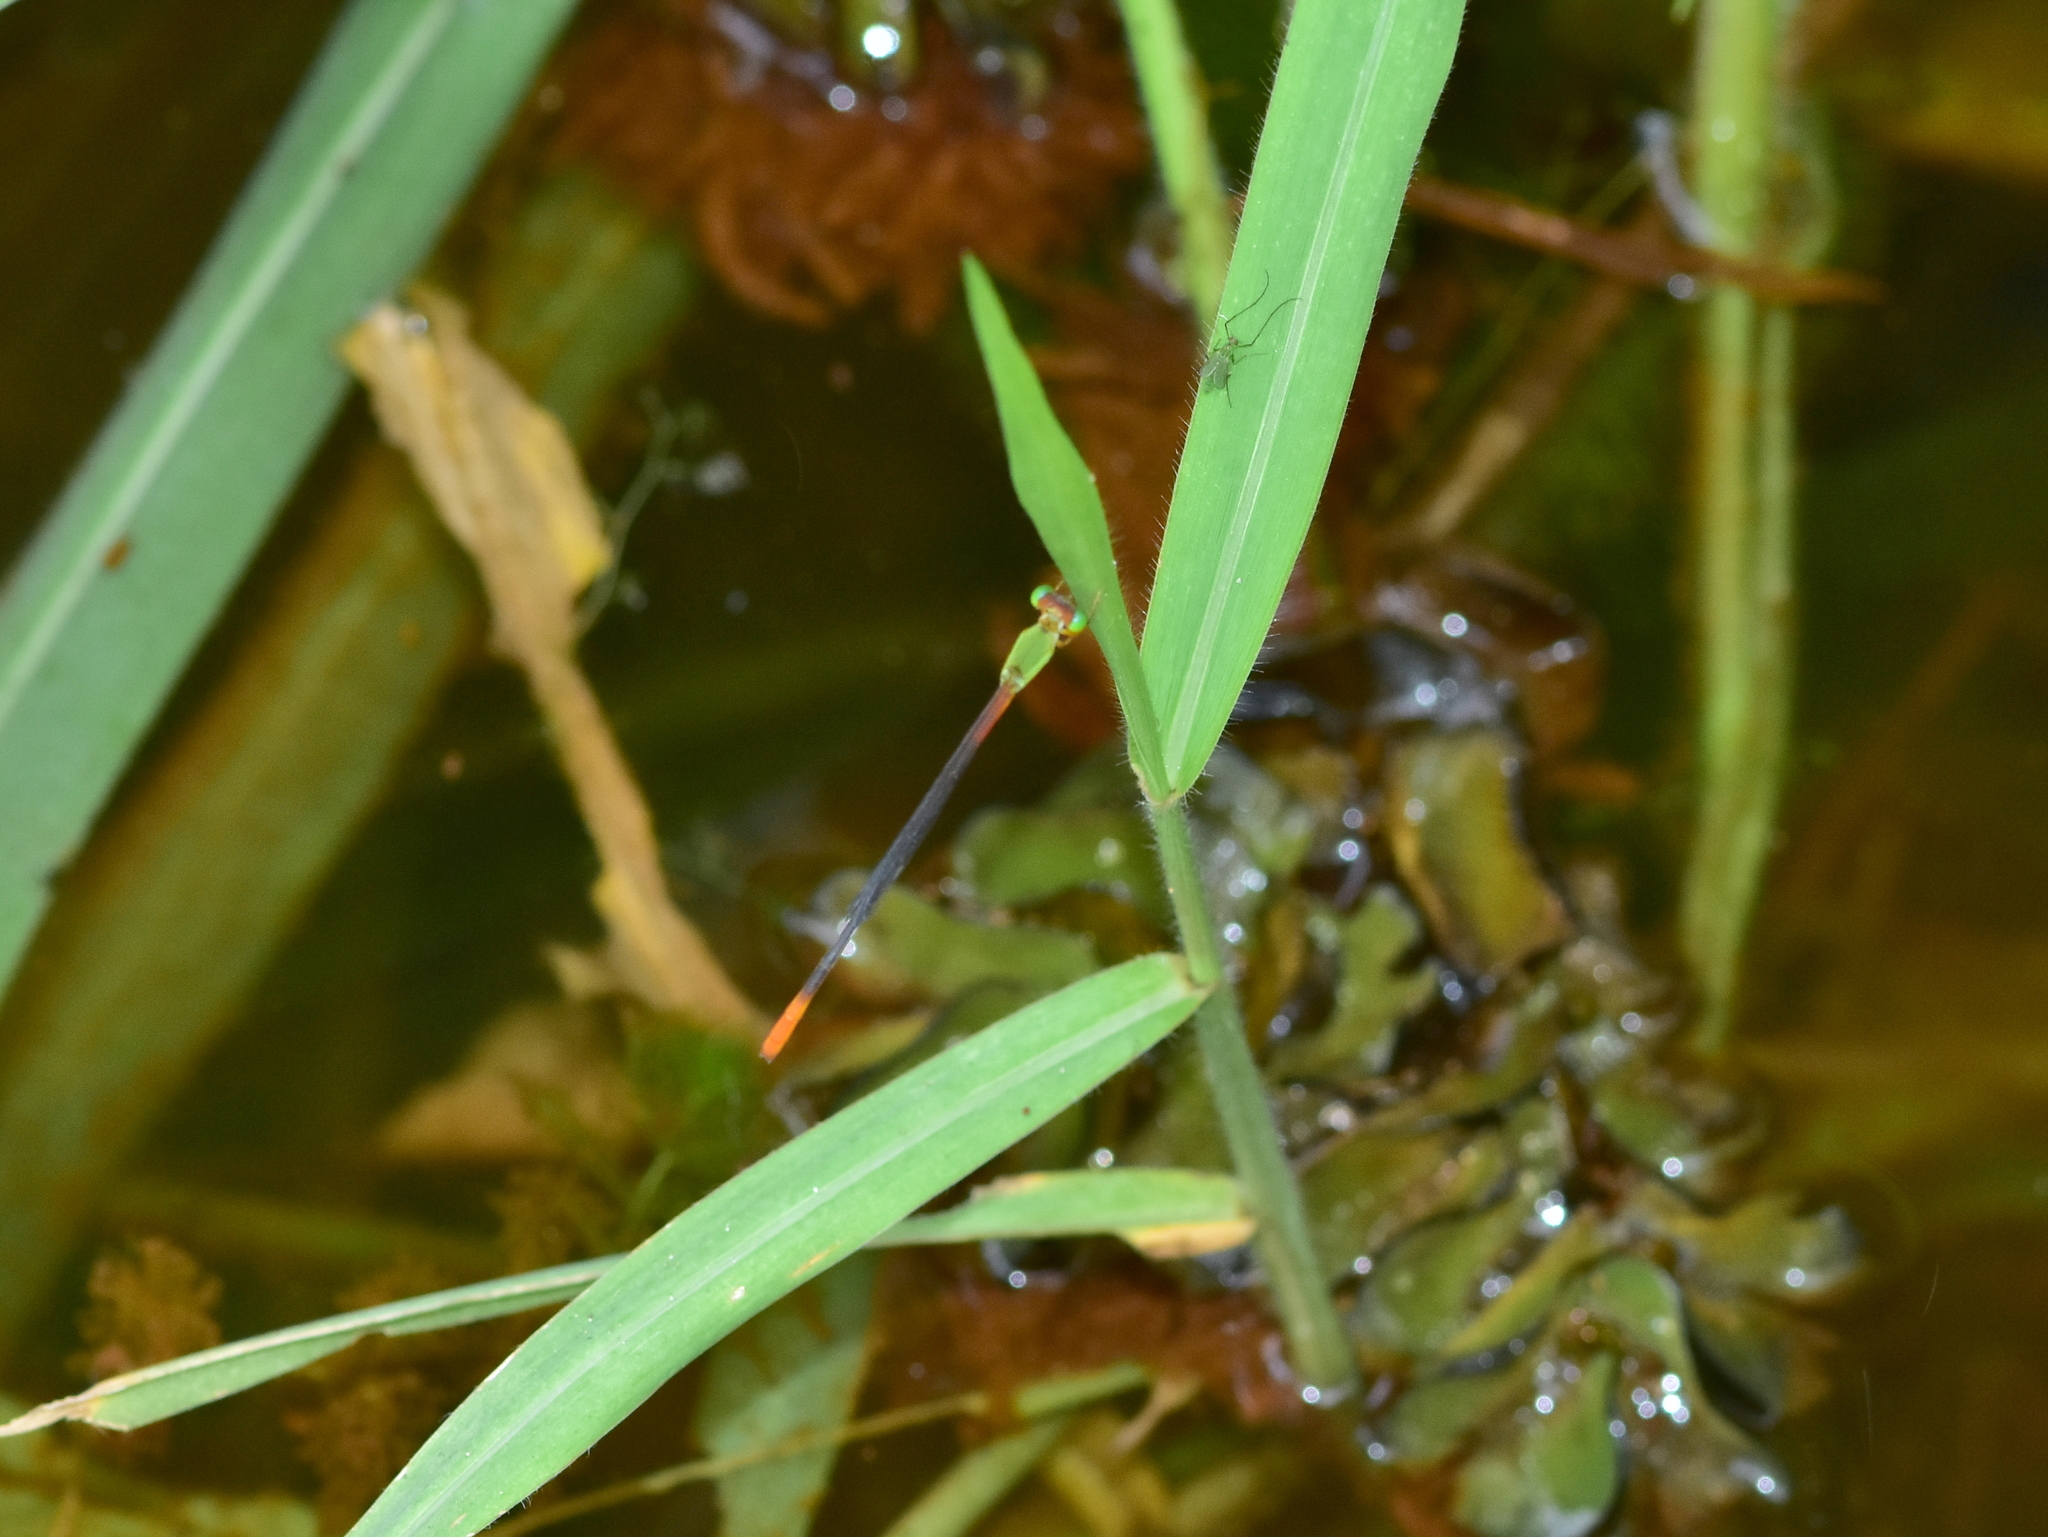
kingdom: Animalia
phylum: Arthropoda
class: Insecta
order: Odonata
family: Coenagrionidae
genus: Ceriagrion
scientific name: Ceriagrion cerinorubellum
